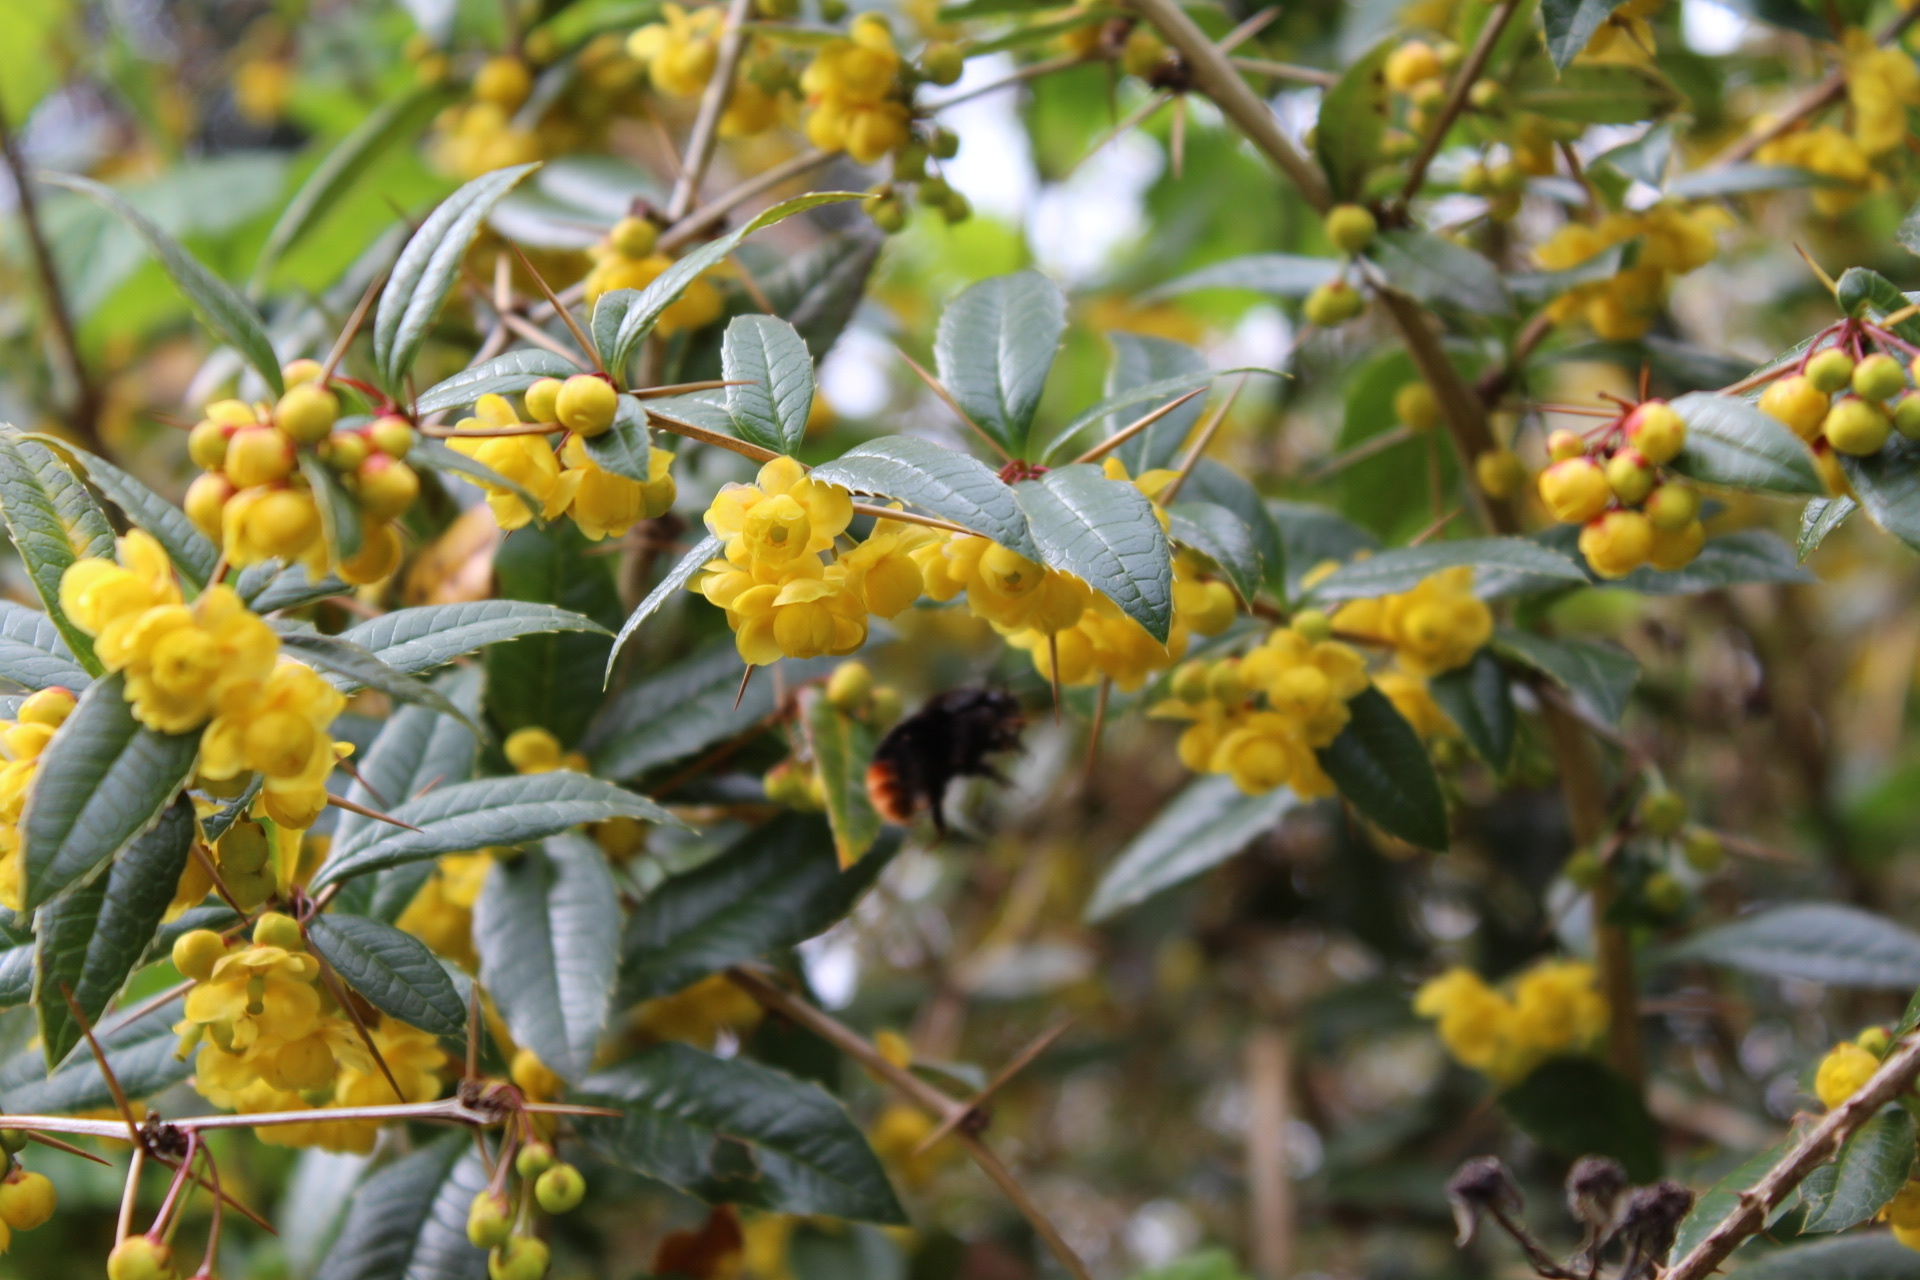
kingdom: Animalia
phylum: Arthropoda
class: Insecta
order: Hymenoptera
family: Apidae
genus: Bombus
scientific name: Bombus lapidarius
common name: Large red-tailed humble-bee
